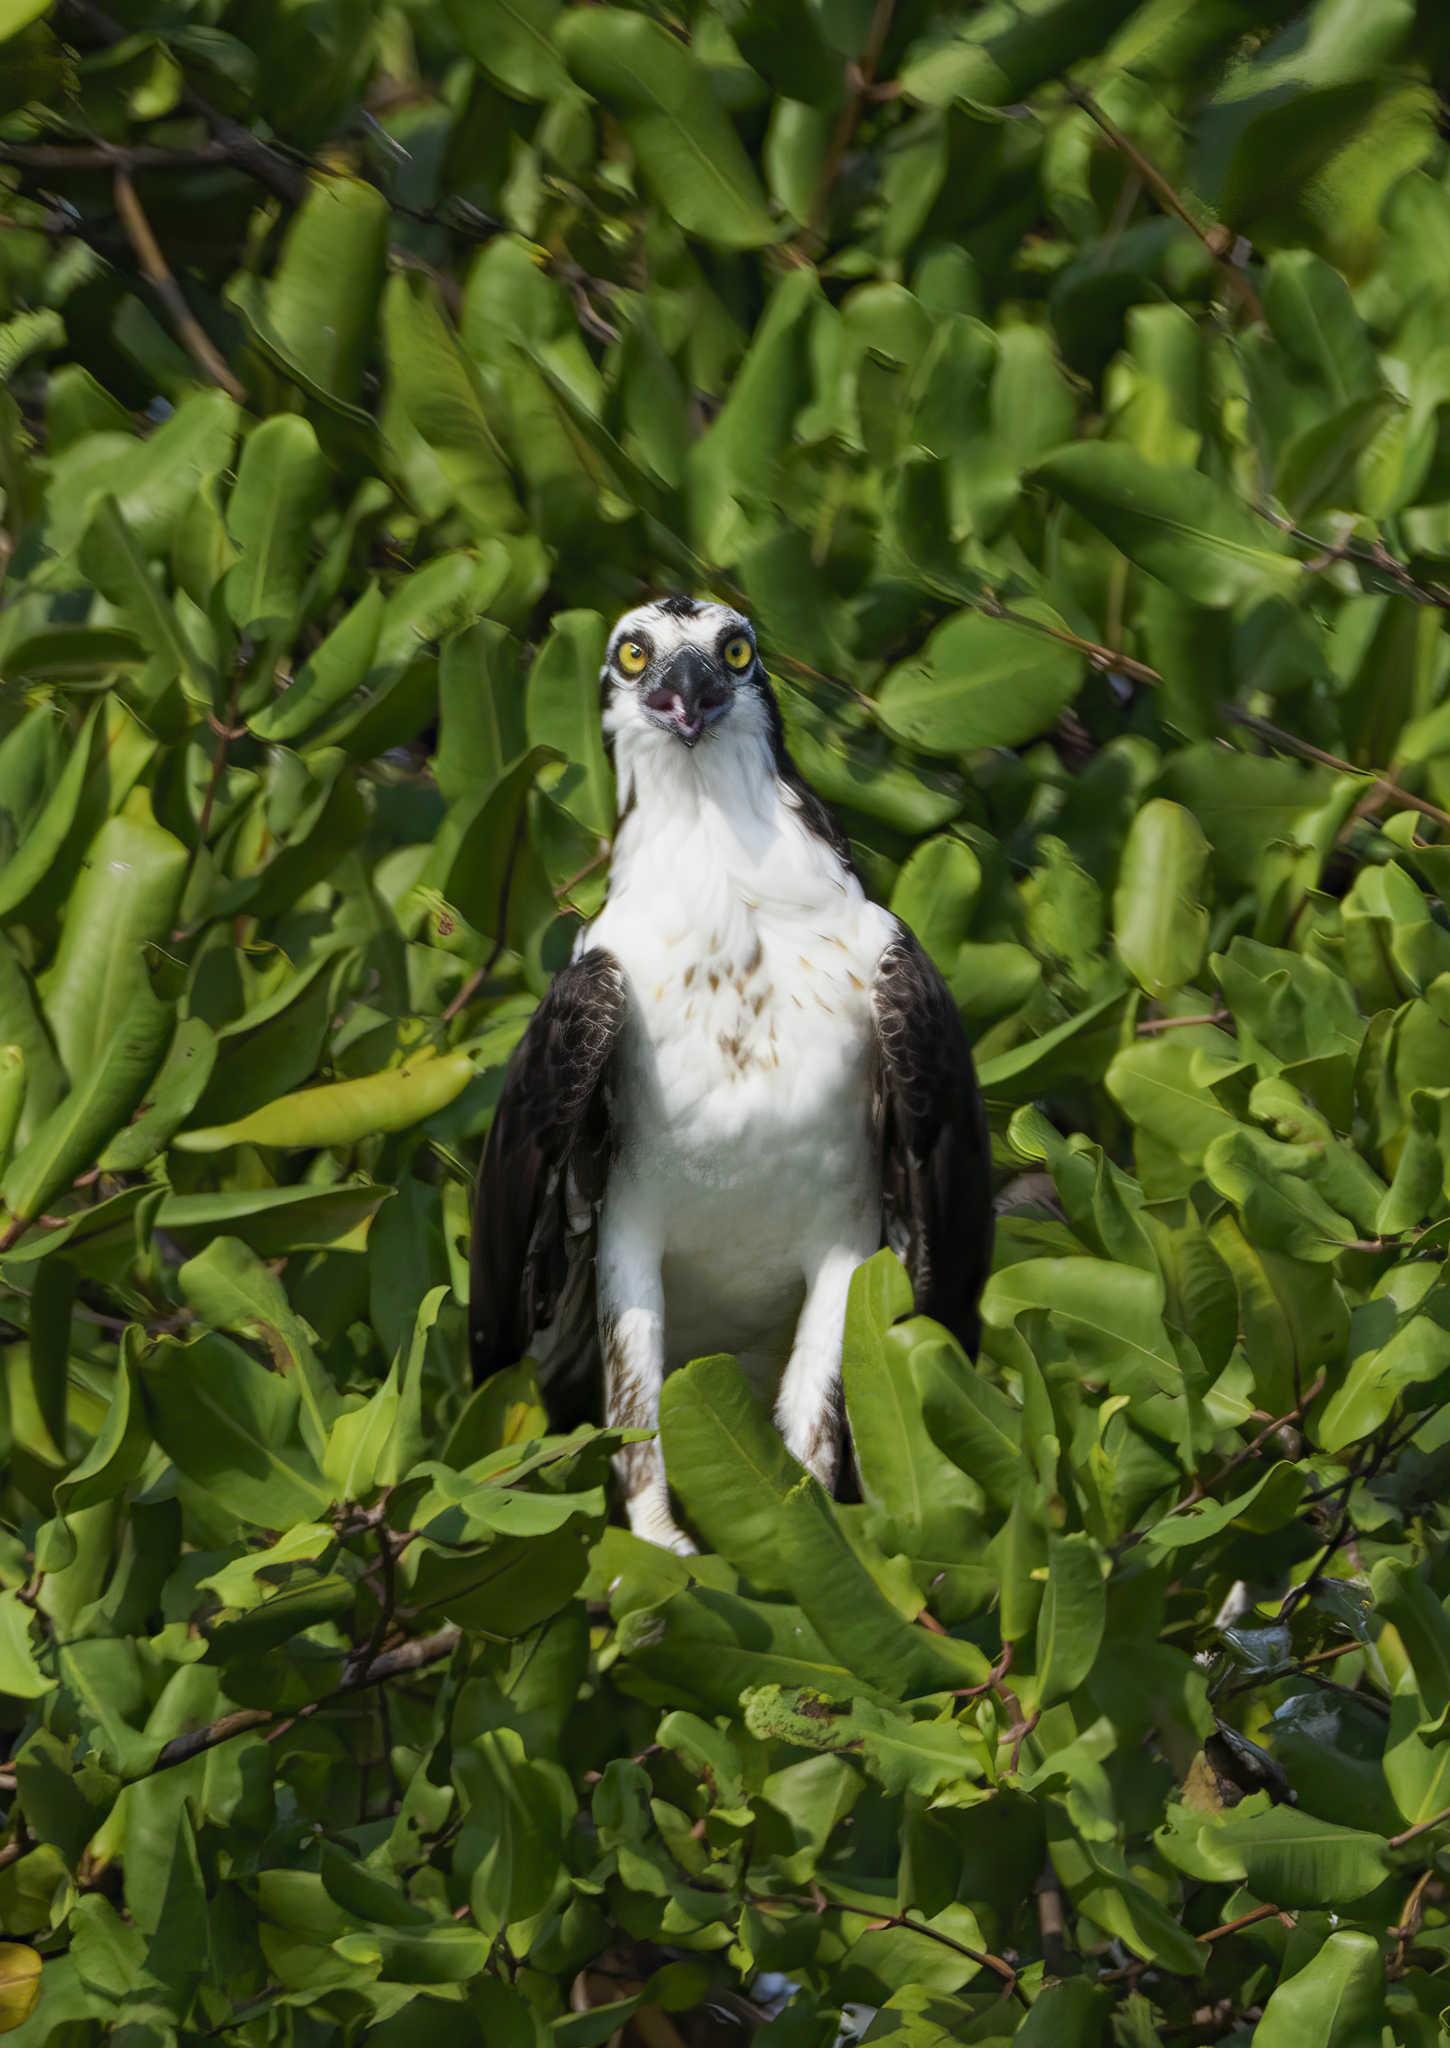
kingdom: Animalia
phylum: Chordata
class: Aves
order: Accipitriformes
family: Pandionidae
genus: Pandion
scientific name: Pandion haliaetus
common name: Osprey
